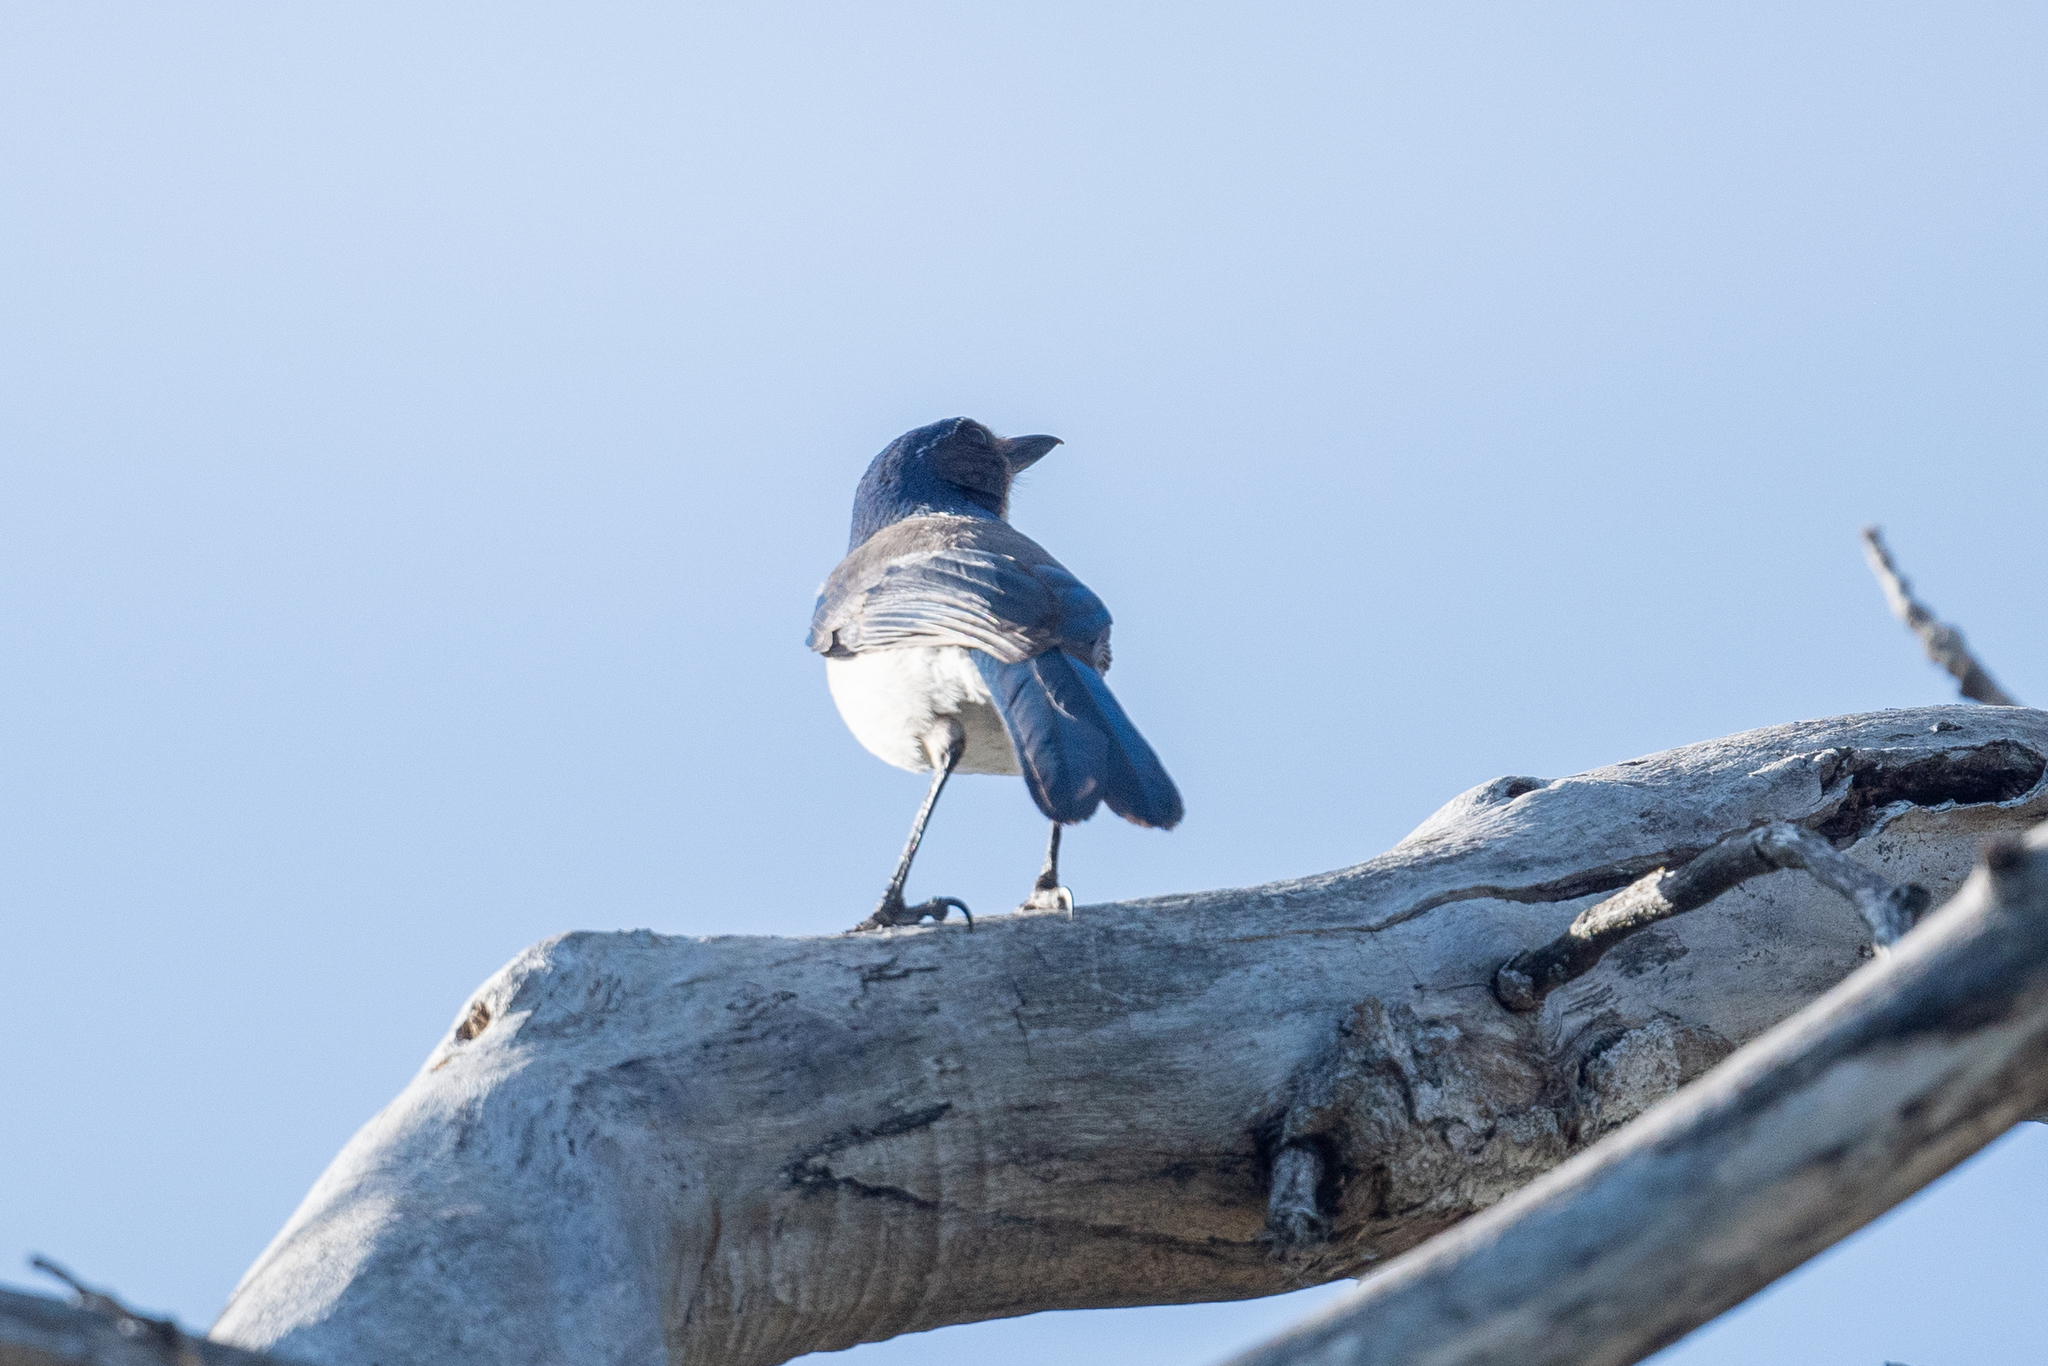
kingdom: Animalia
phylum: Chordata
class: Aves
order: Passeriformes
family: Corvidae
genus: Aphelocoma
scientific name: Aphelocoma californica
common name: California scrub-jay
